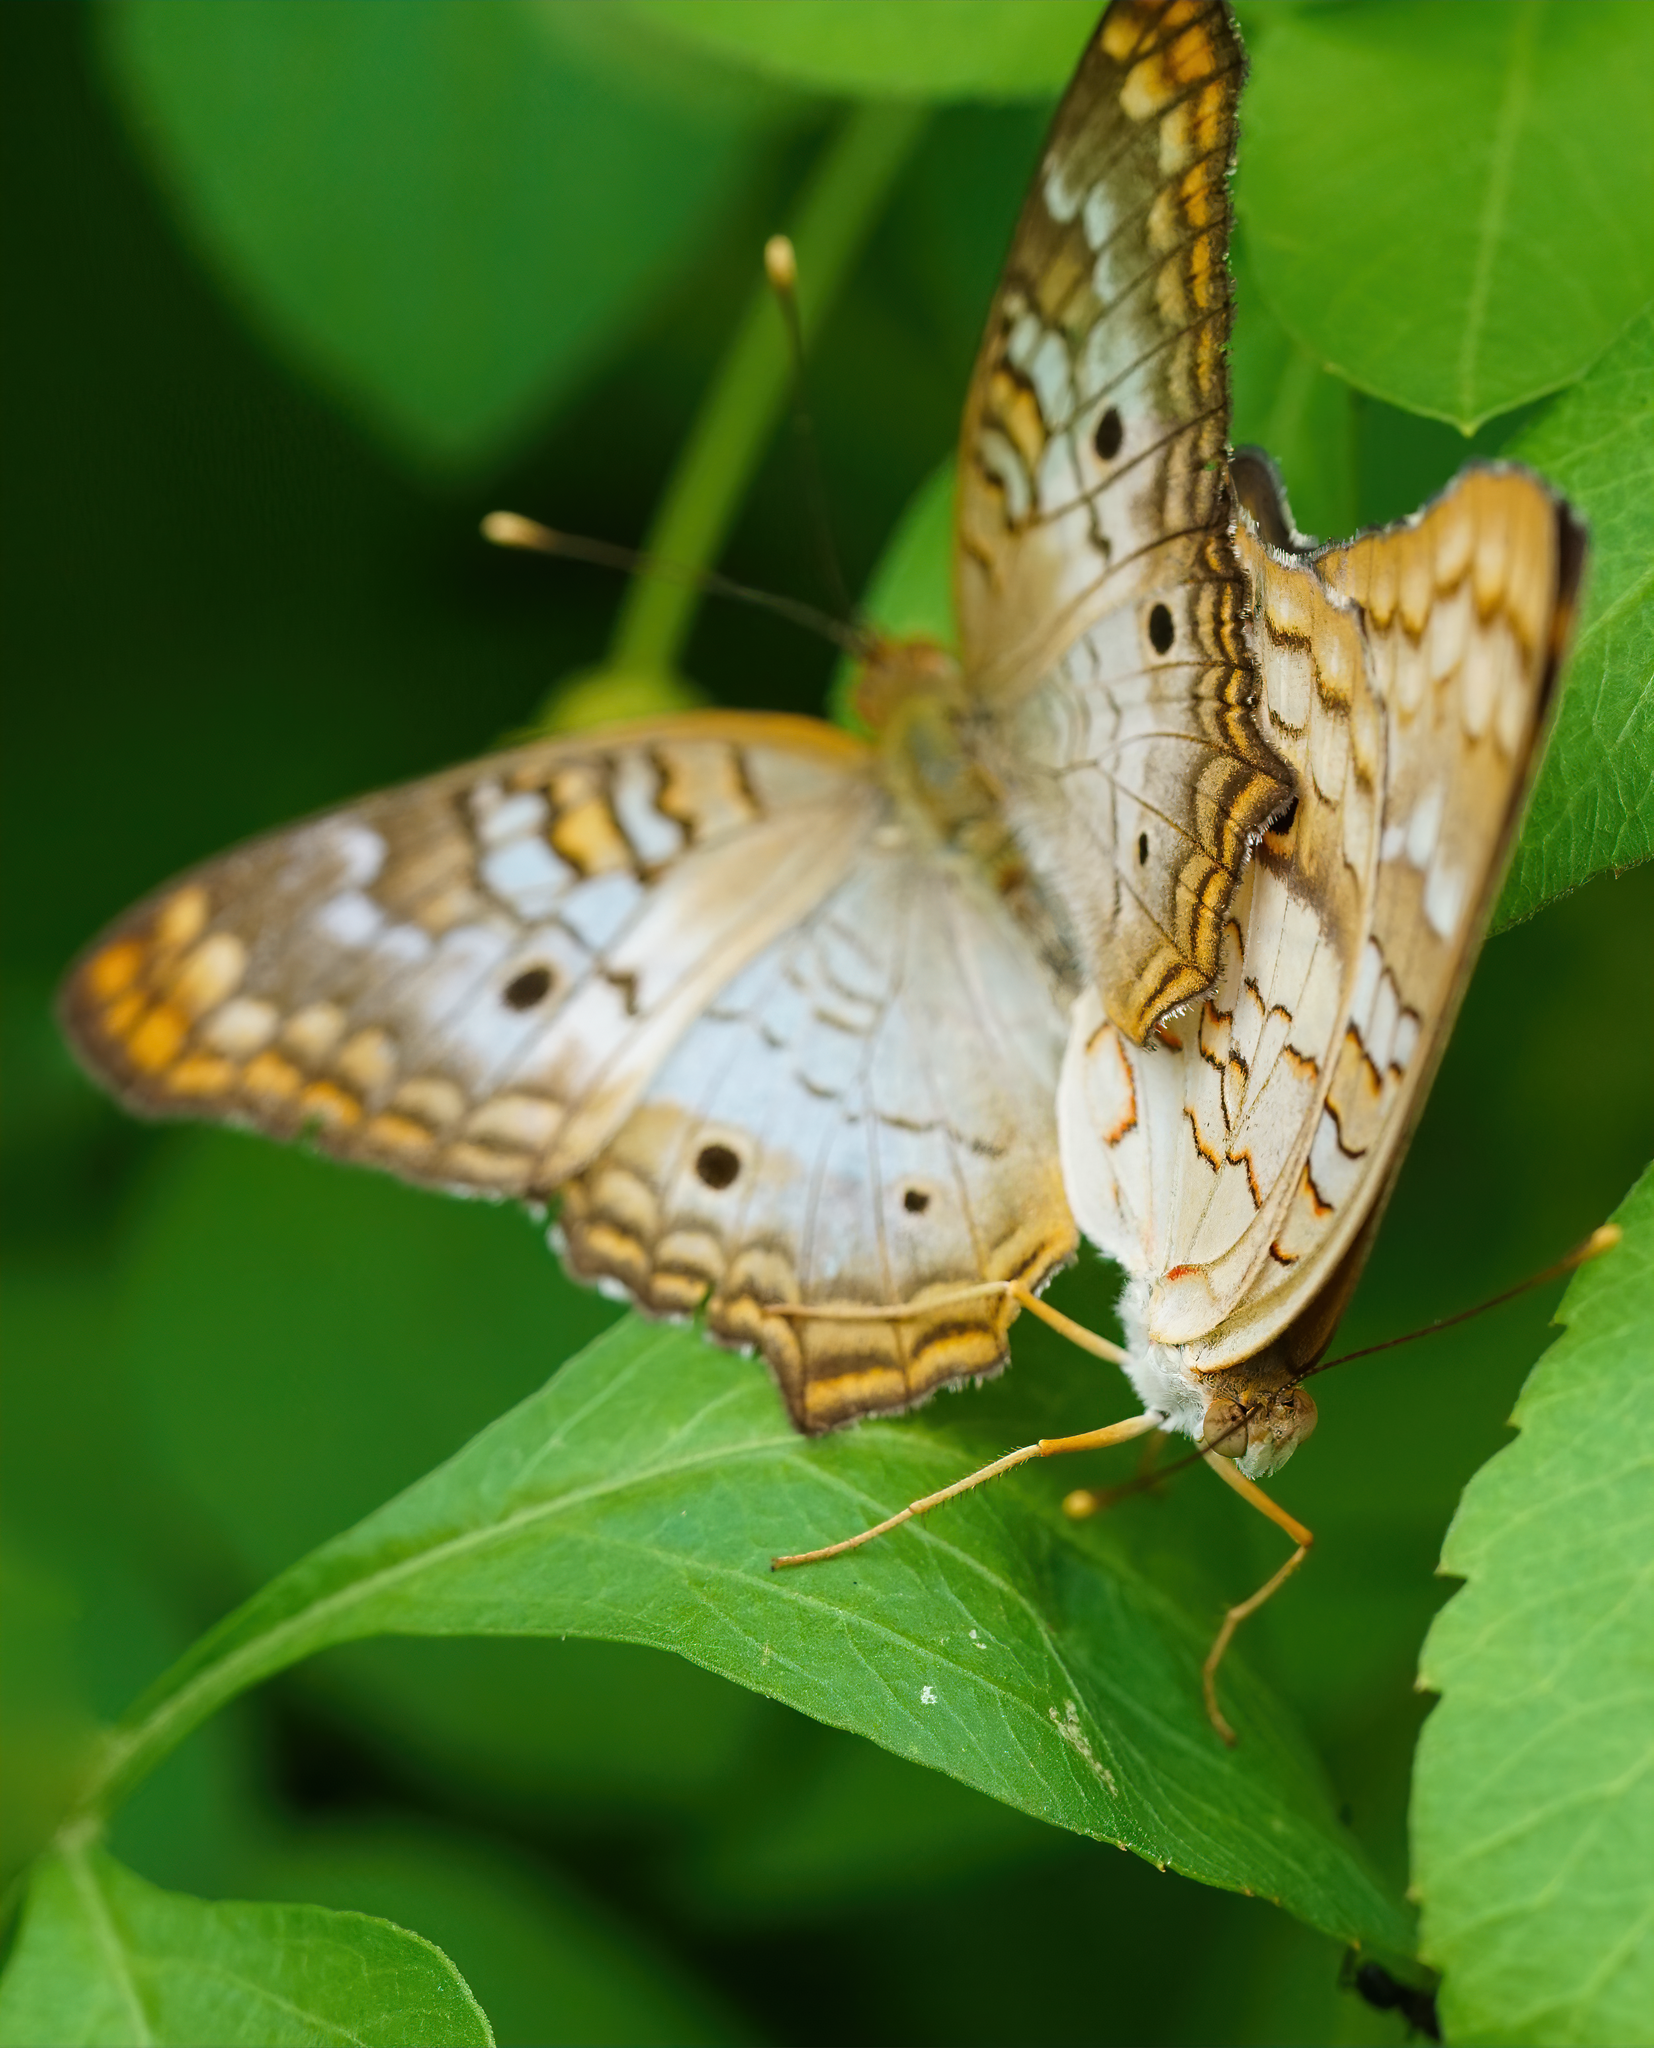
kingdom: Animalia
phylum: Arthropoda
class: Insecta
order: Lepidoptera
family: Nymphalidae
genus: Anartia
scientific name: Anartia jatrophae
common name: White peacock
